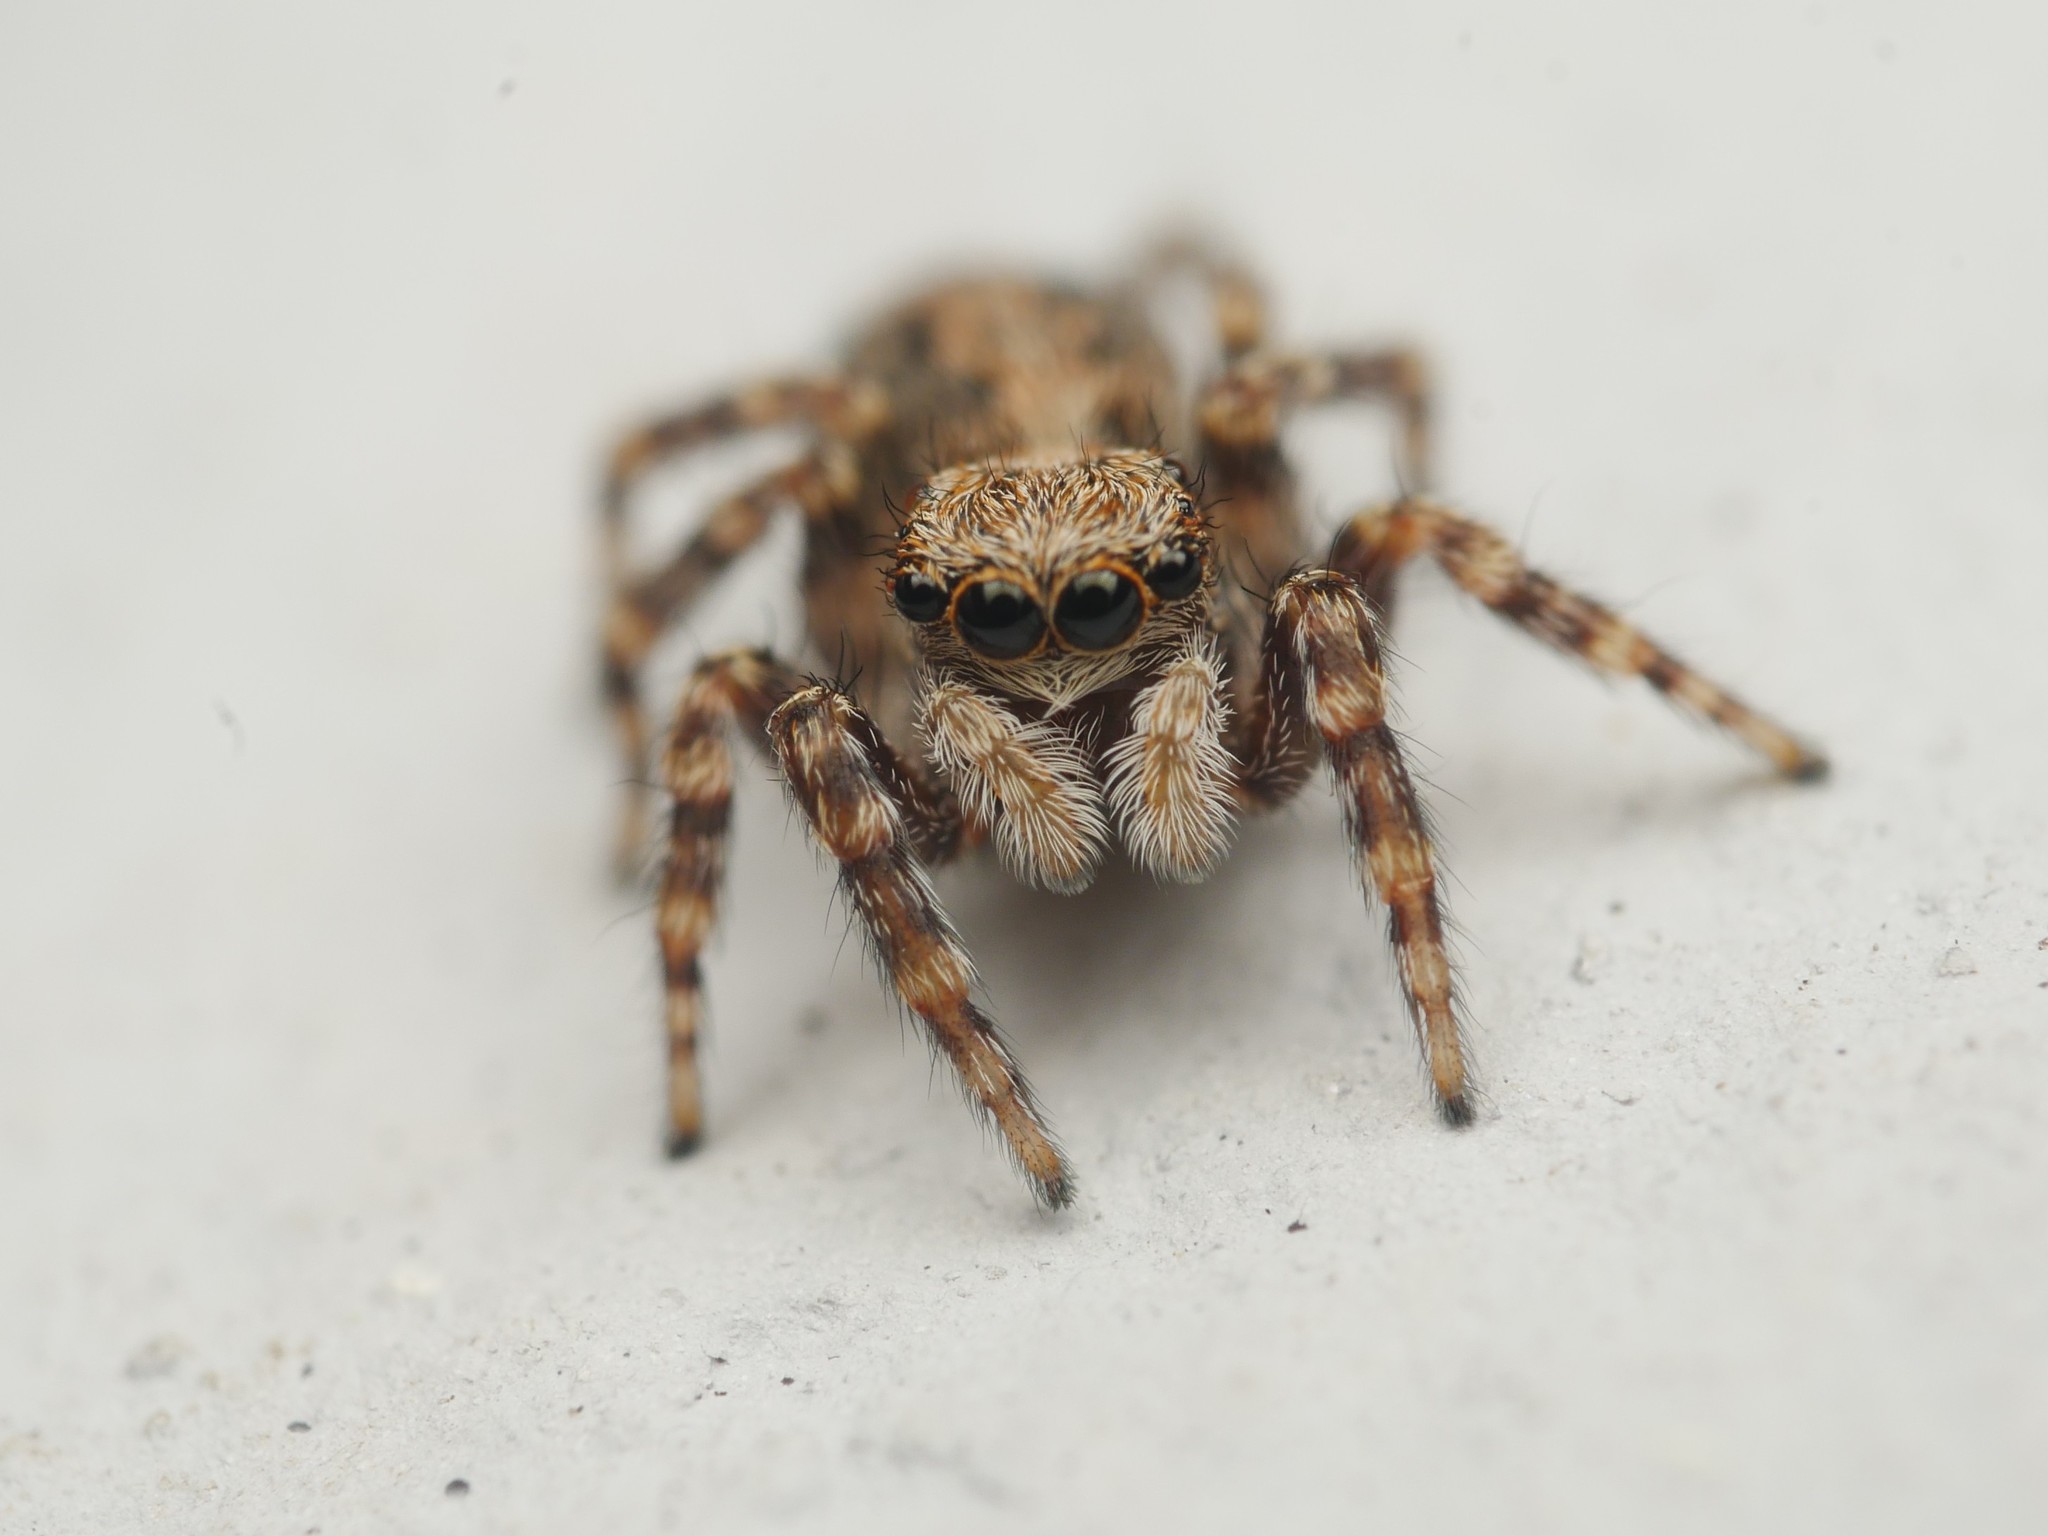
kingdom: Animalia
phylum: Arthropoda
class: Arachnida
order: Araneae
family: Salticidae
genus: Pseudeuophrys
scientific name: Pseudeuophrys lanigera
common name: Jumping spider
